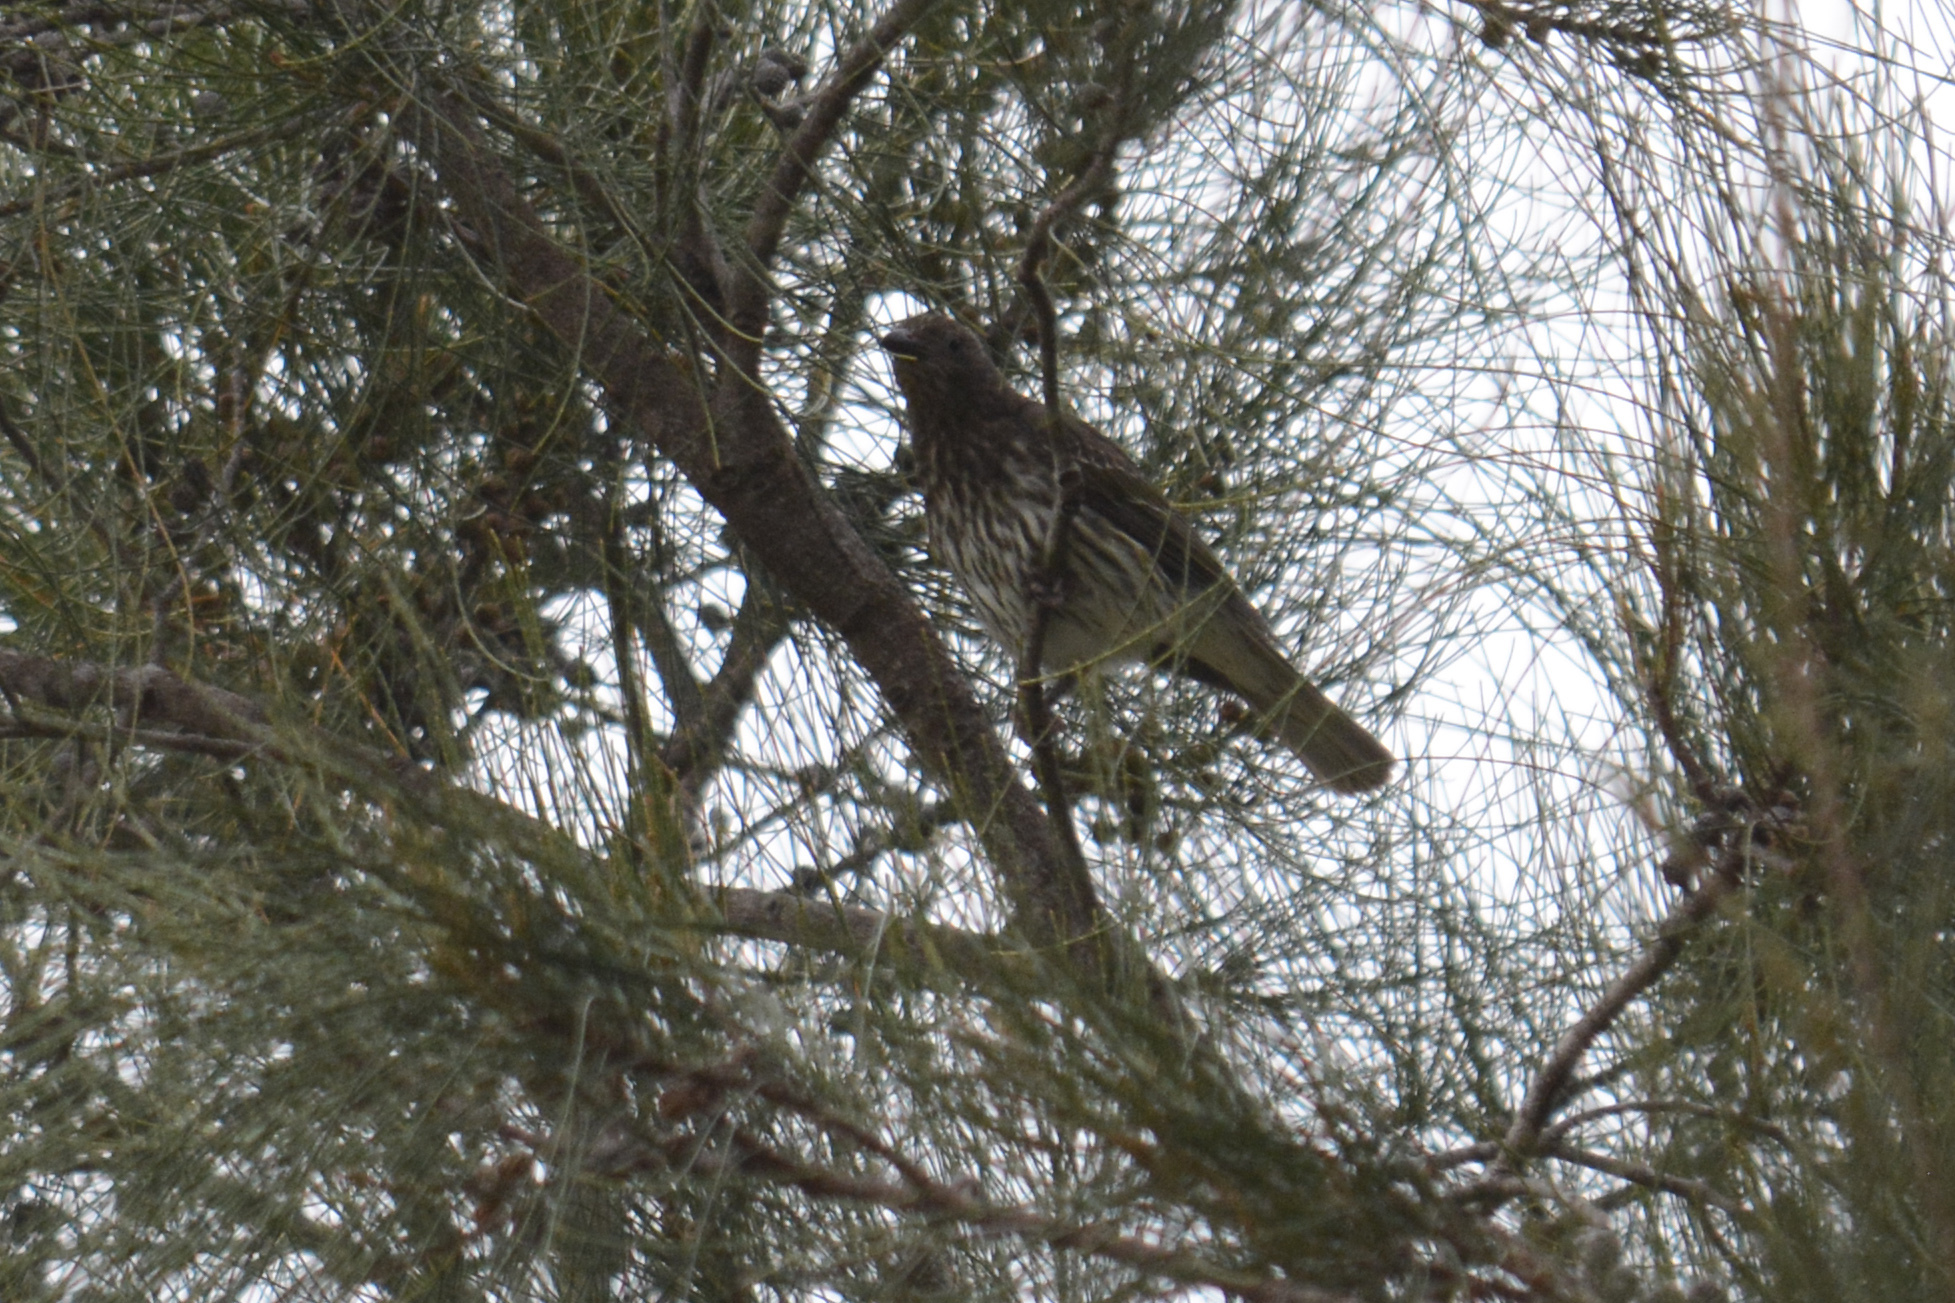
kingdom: Animalia
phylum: Chordata
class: Aves
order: Passeriformes
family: Oriolidae
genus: Sphecotheres
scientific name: Sphecotheres vieilloti
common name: Australasian figbird
